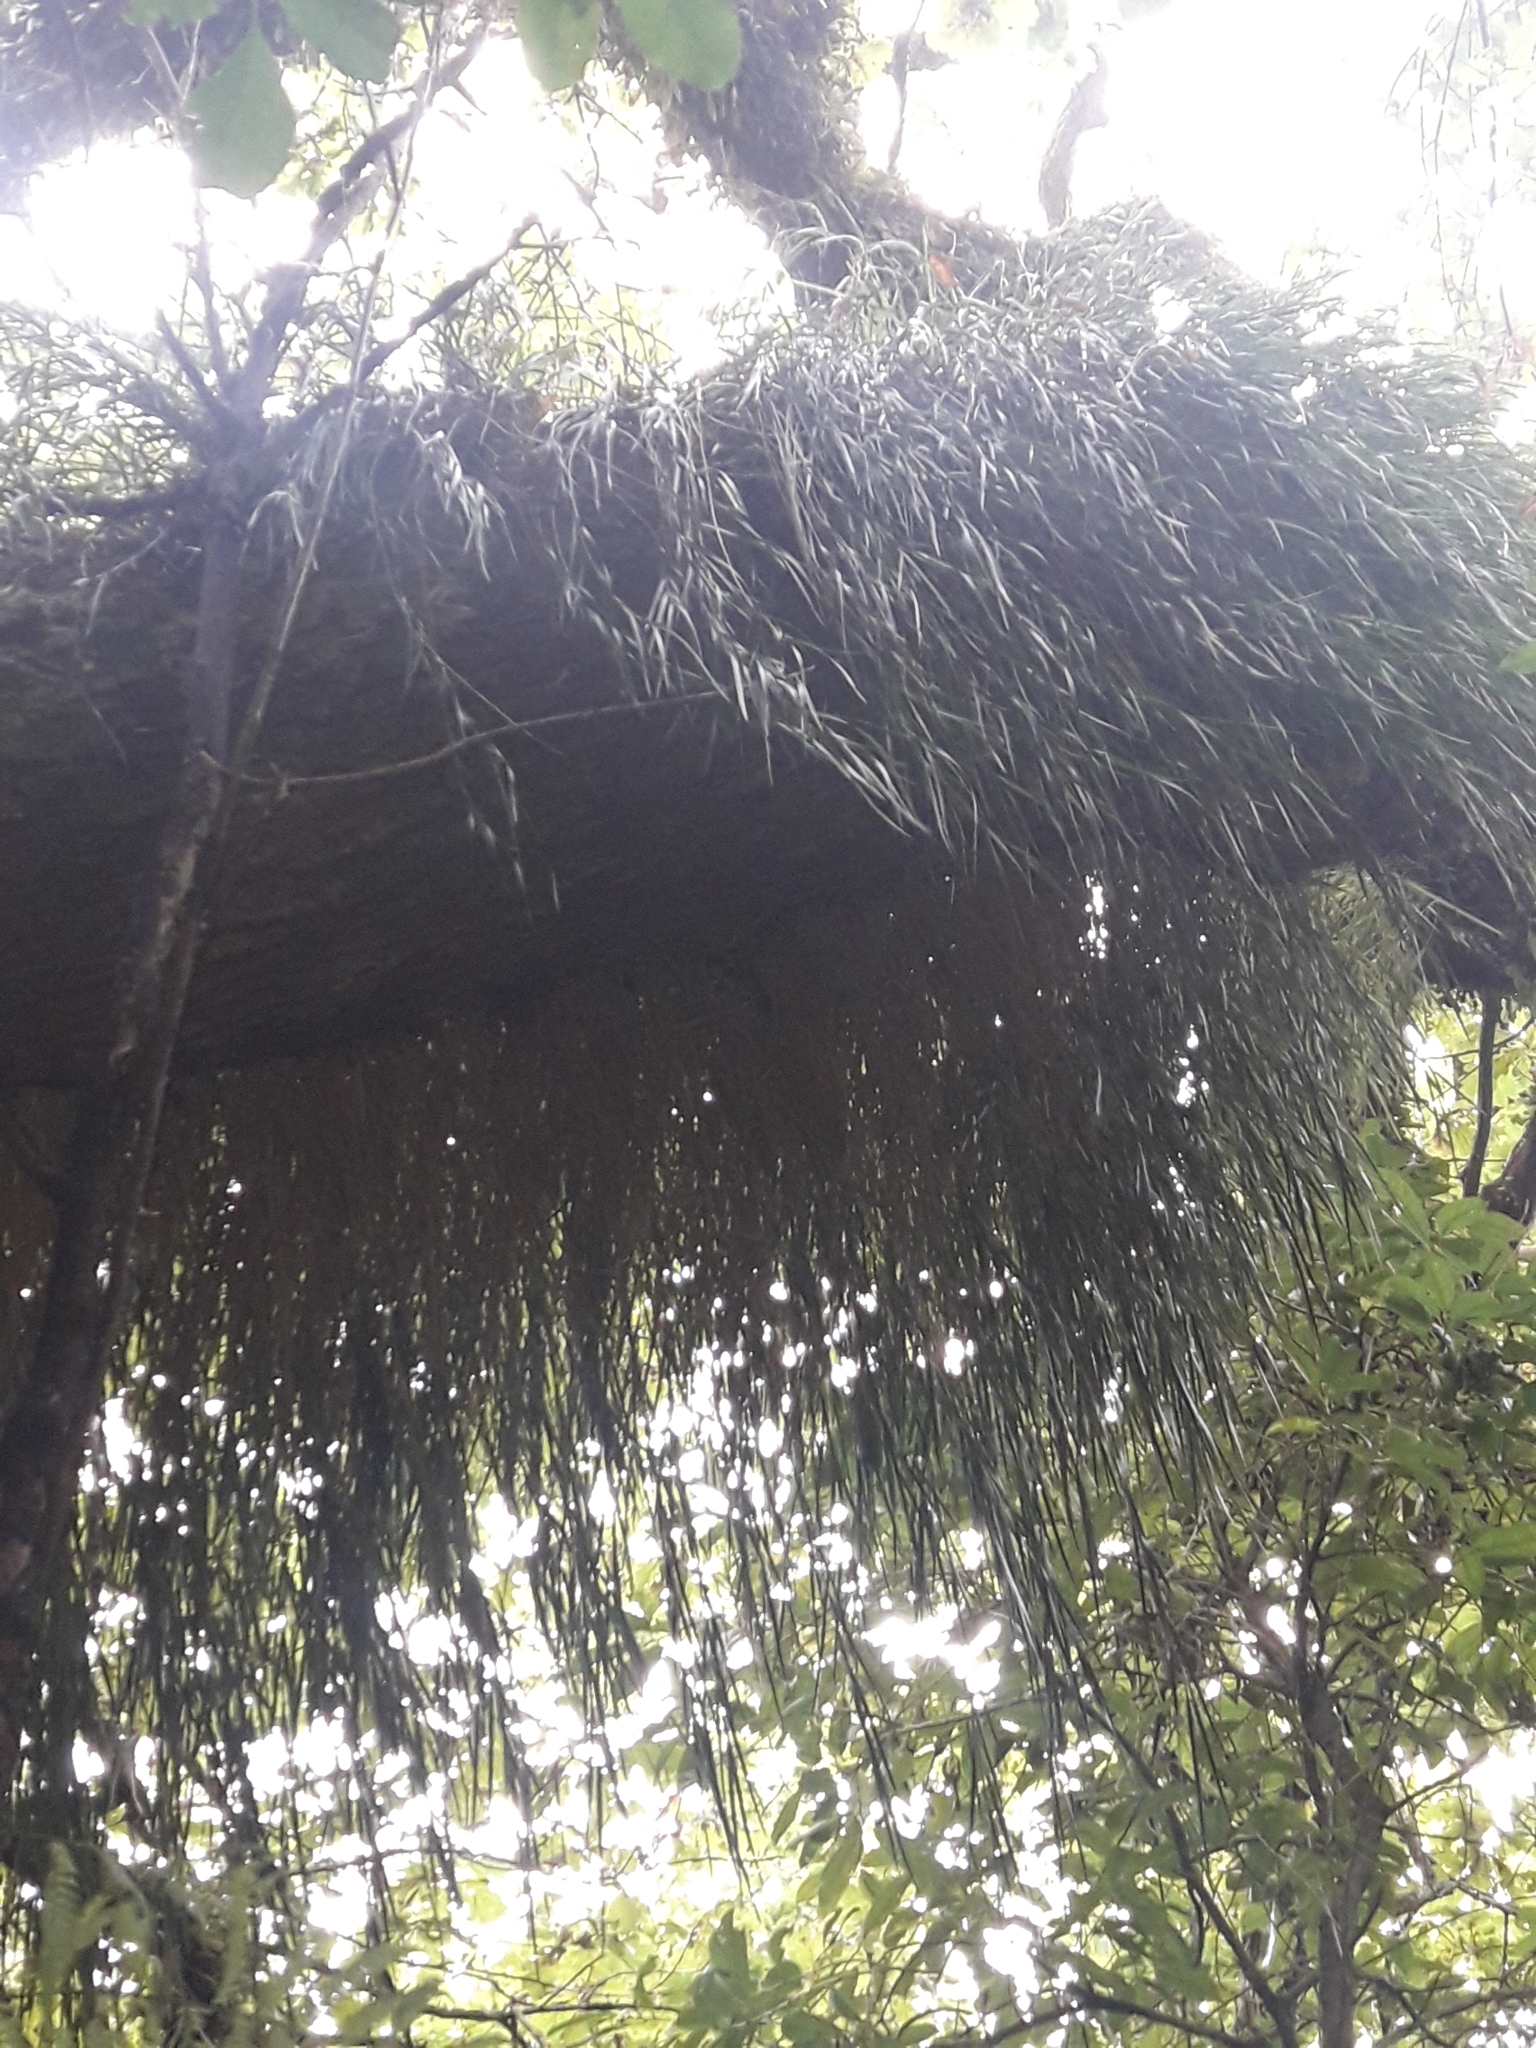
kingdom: Plantae
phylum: Tracheophyta
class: Liliopsida
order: Asparagales
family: Orchidaceae
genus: Earina
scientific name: Earina mucronata
